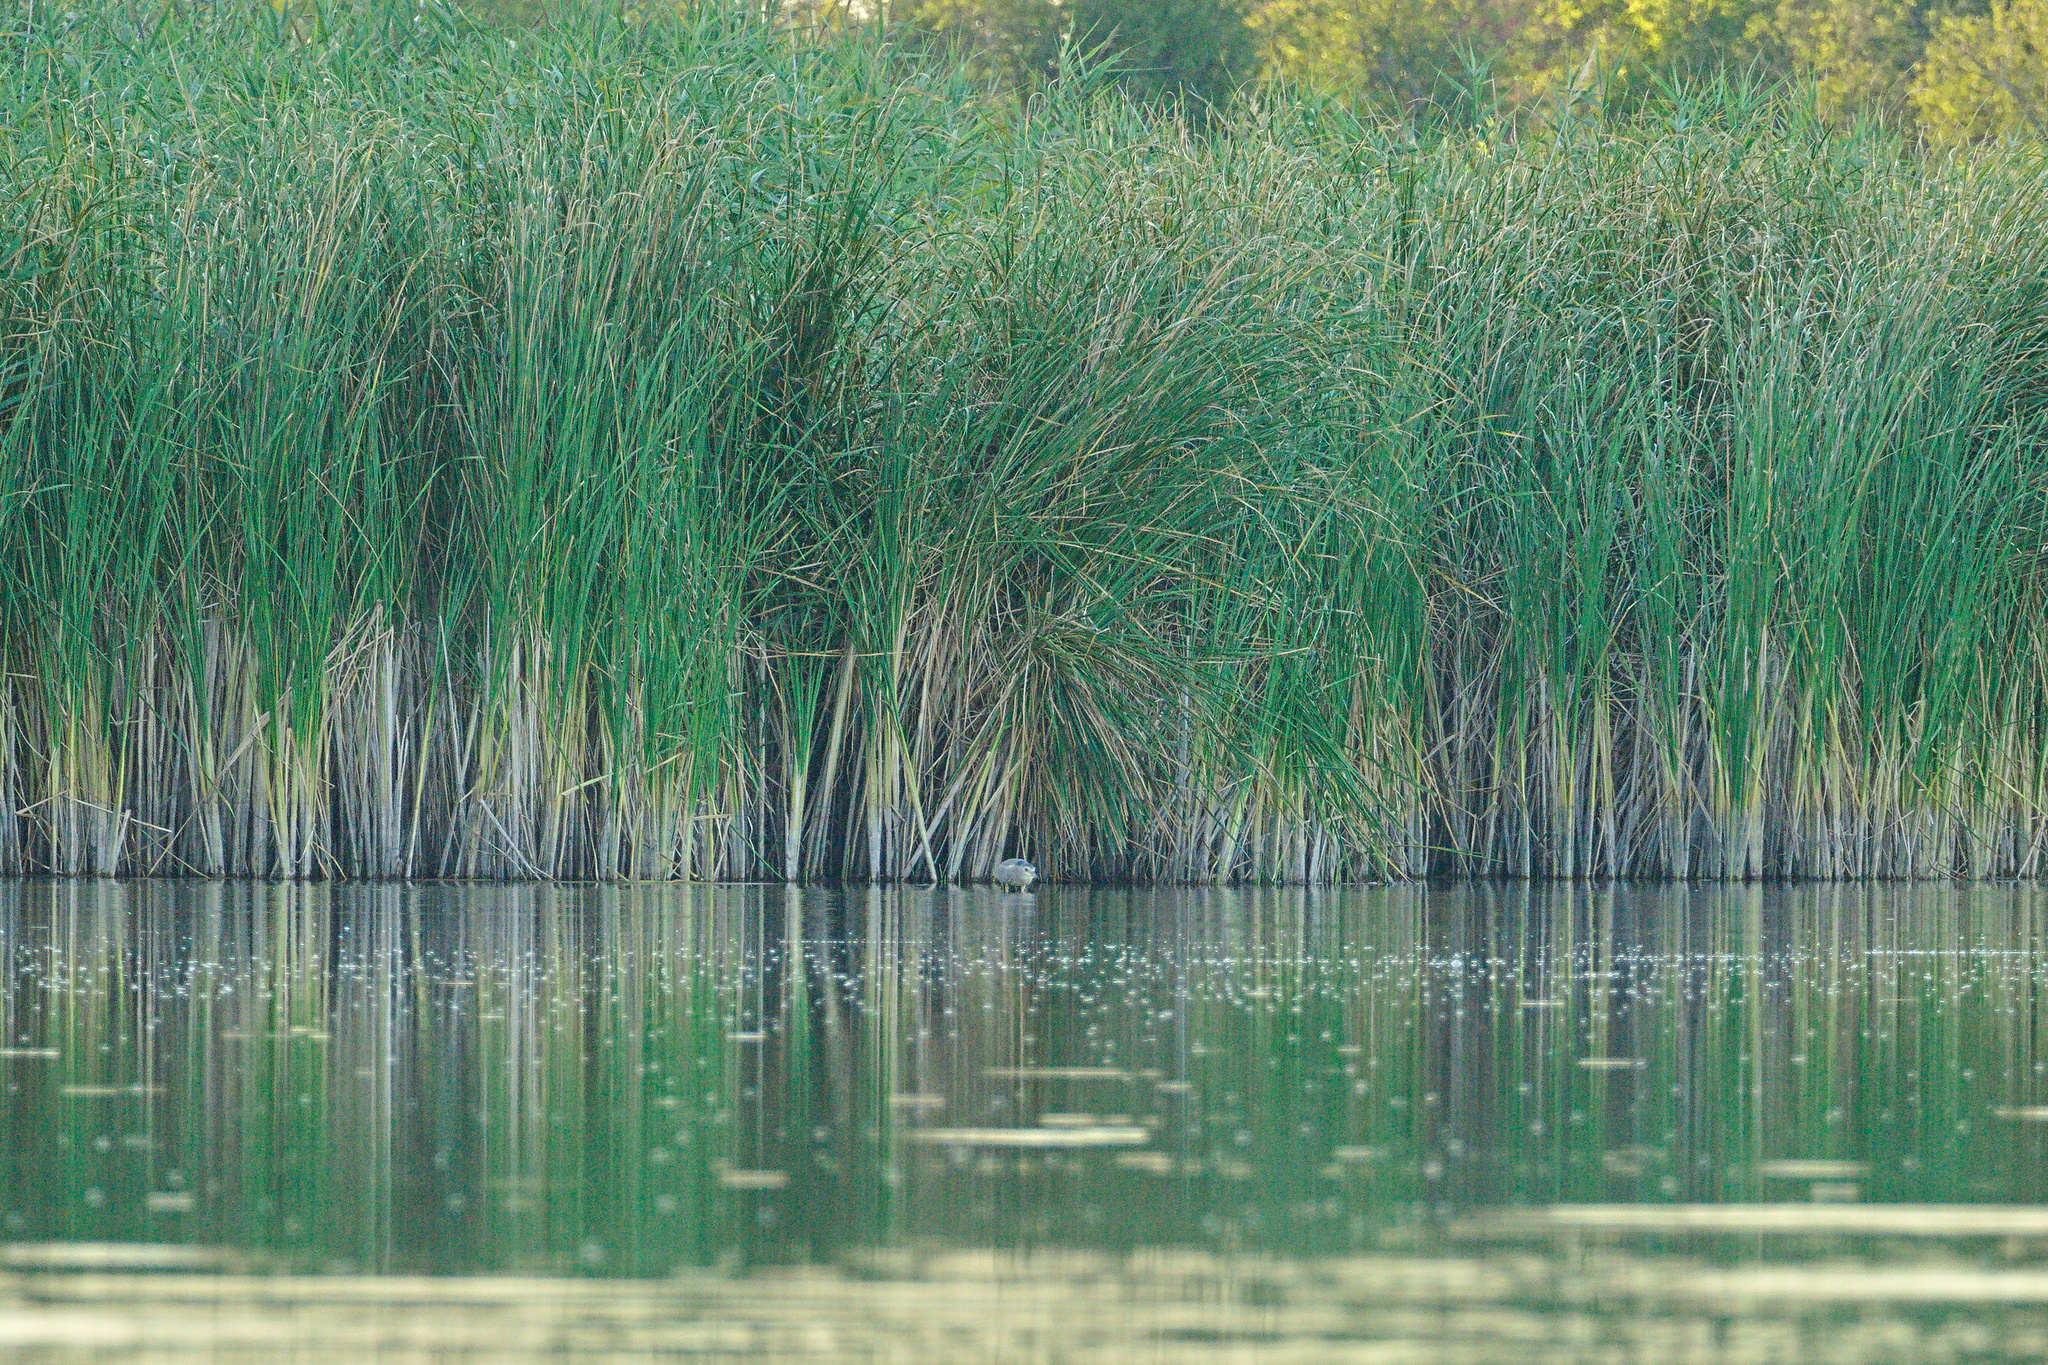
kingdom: Animalia
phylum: Chordata
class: Aves
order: Pelecaniformes
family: Ardeidae
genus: Nycticorax
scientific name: Nycticorax nycticorax
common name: Black-crowned night heron
